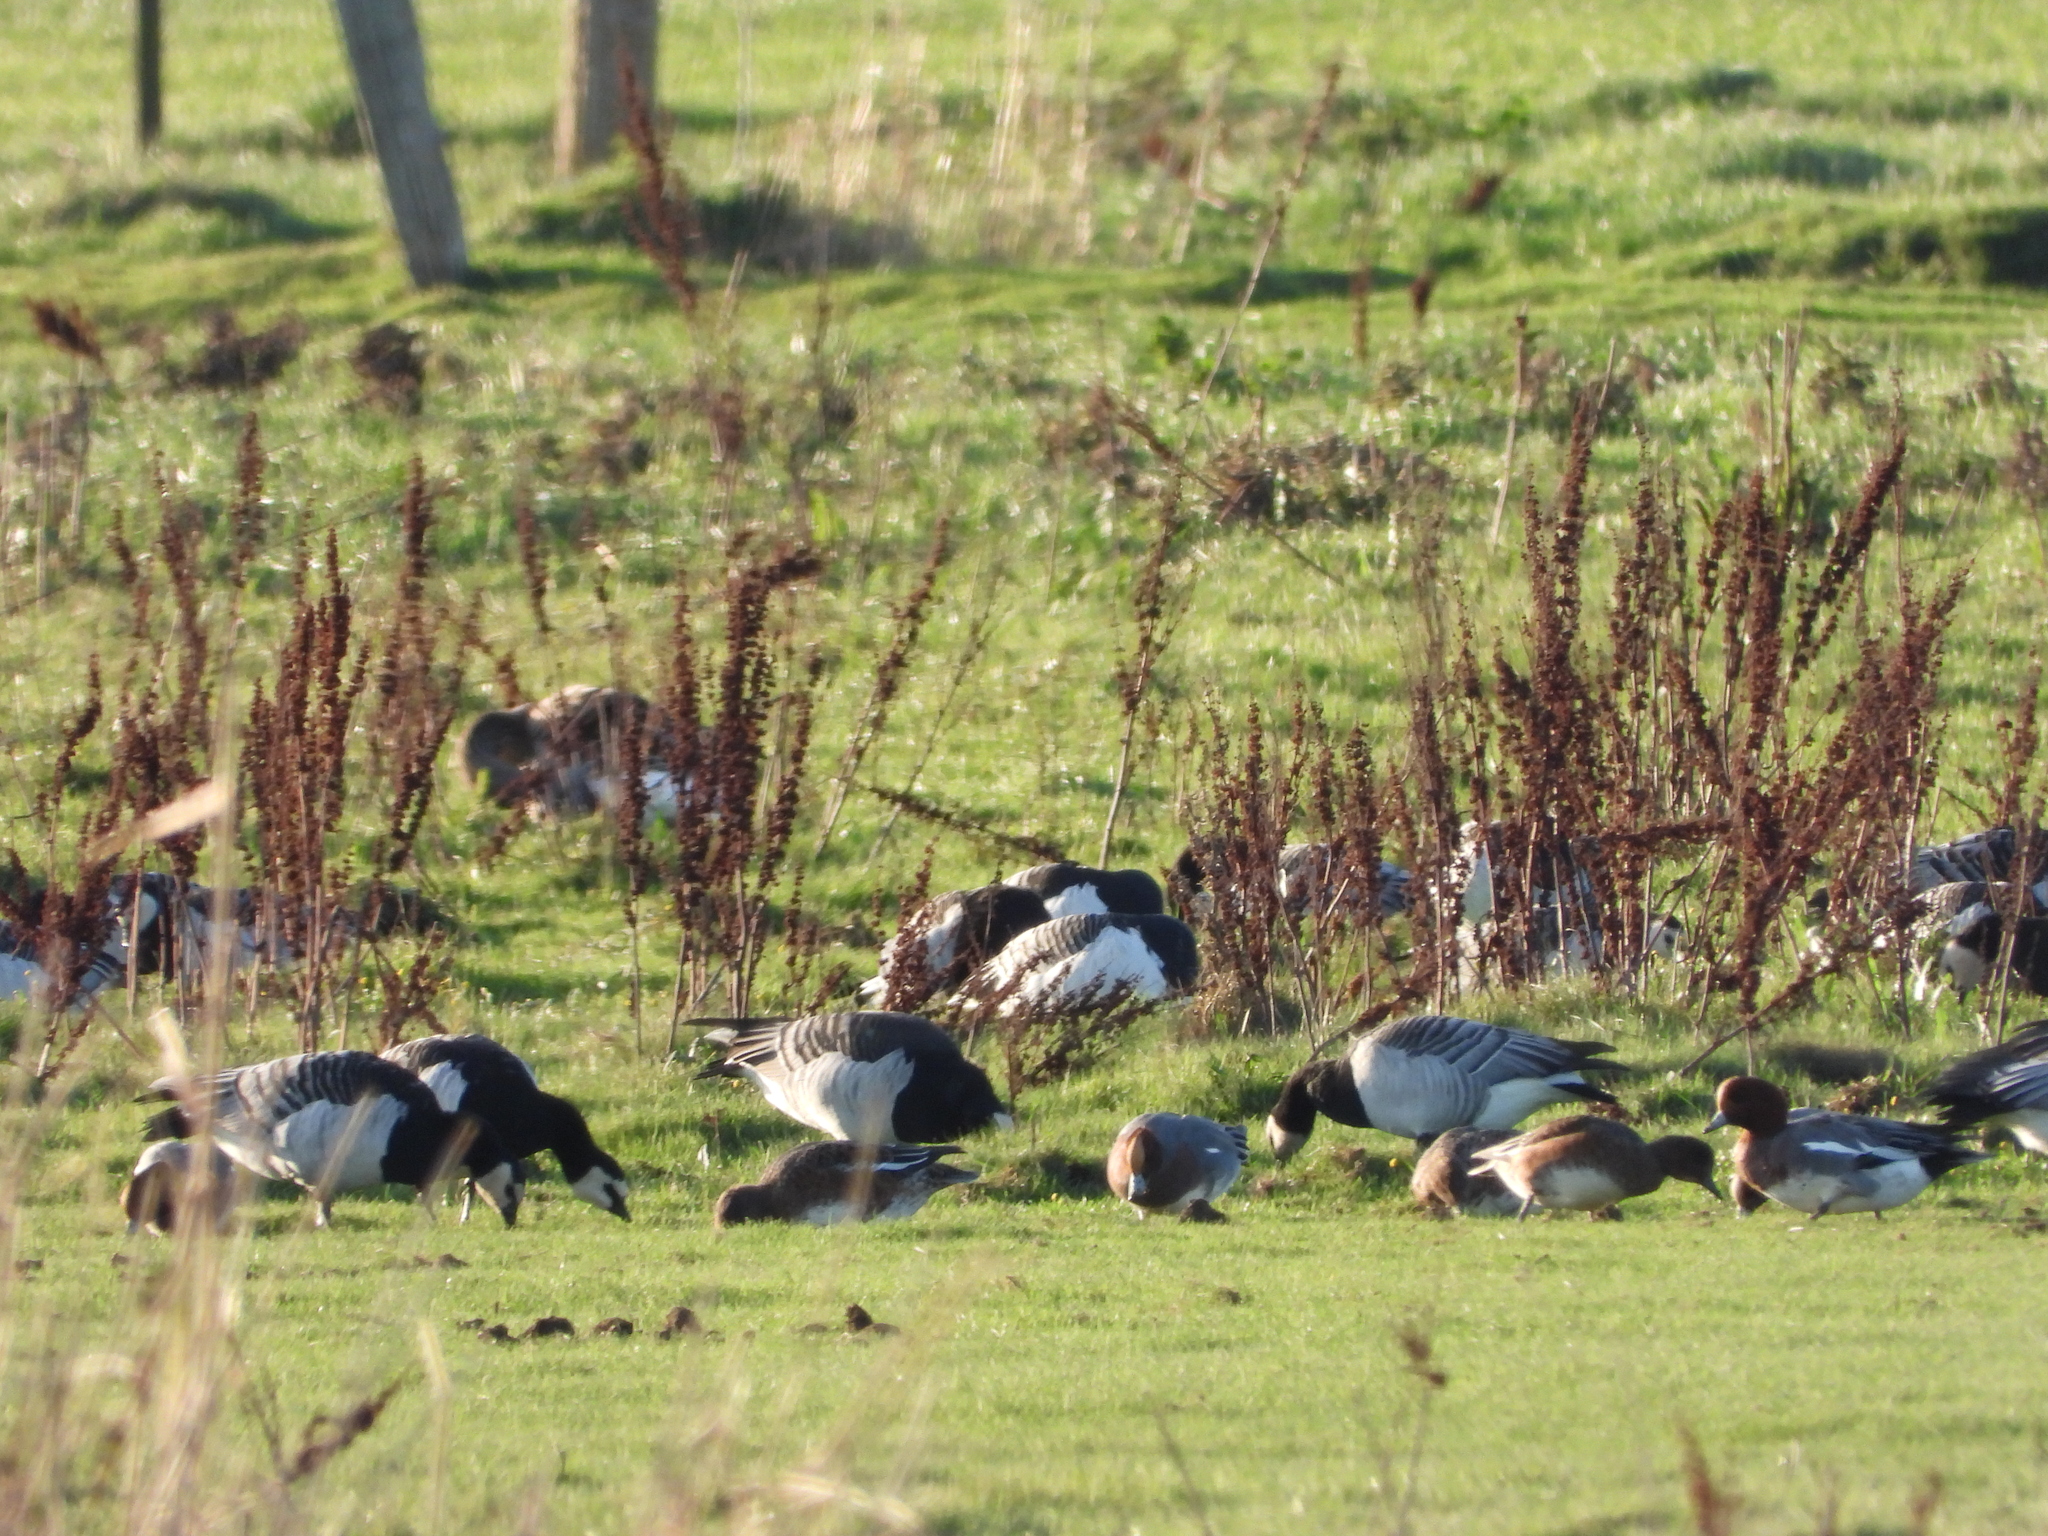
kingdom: Animalia
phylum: Chordata
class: Aves
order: Anseriformes
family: Anatidae
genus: Branta
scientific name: Branta leucopsis
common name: Barnacle goose
